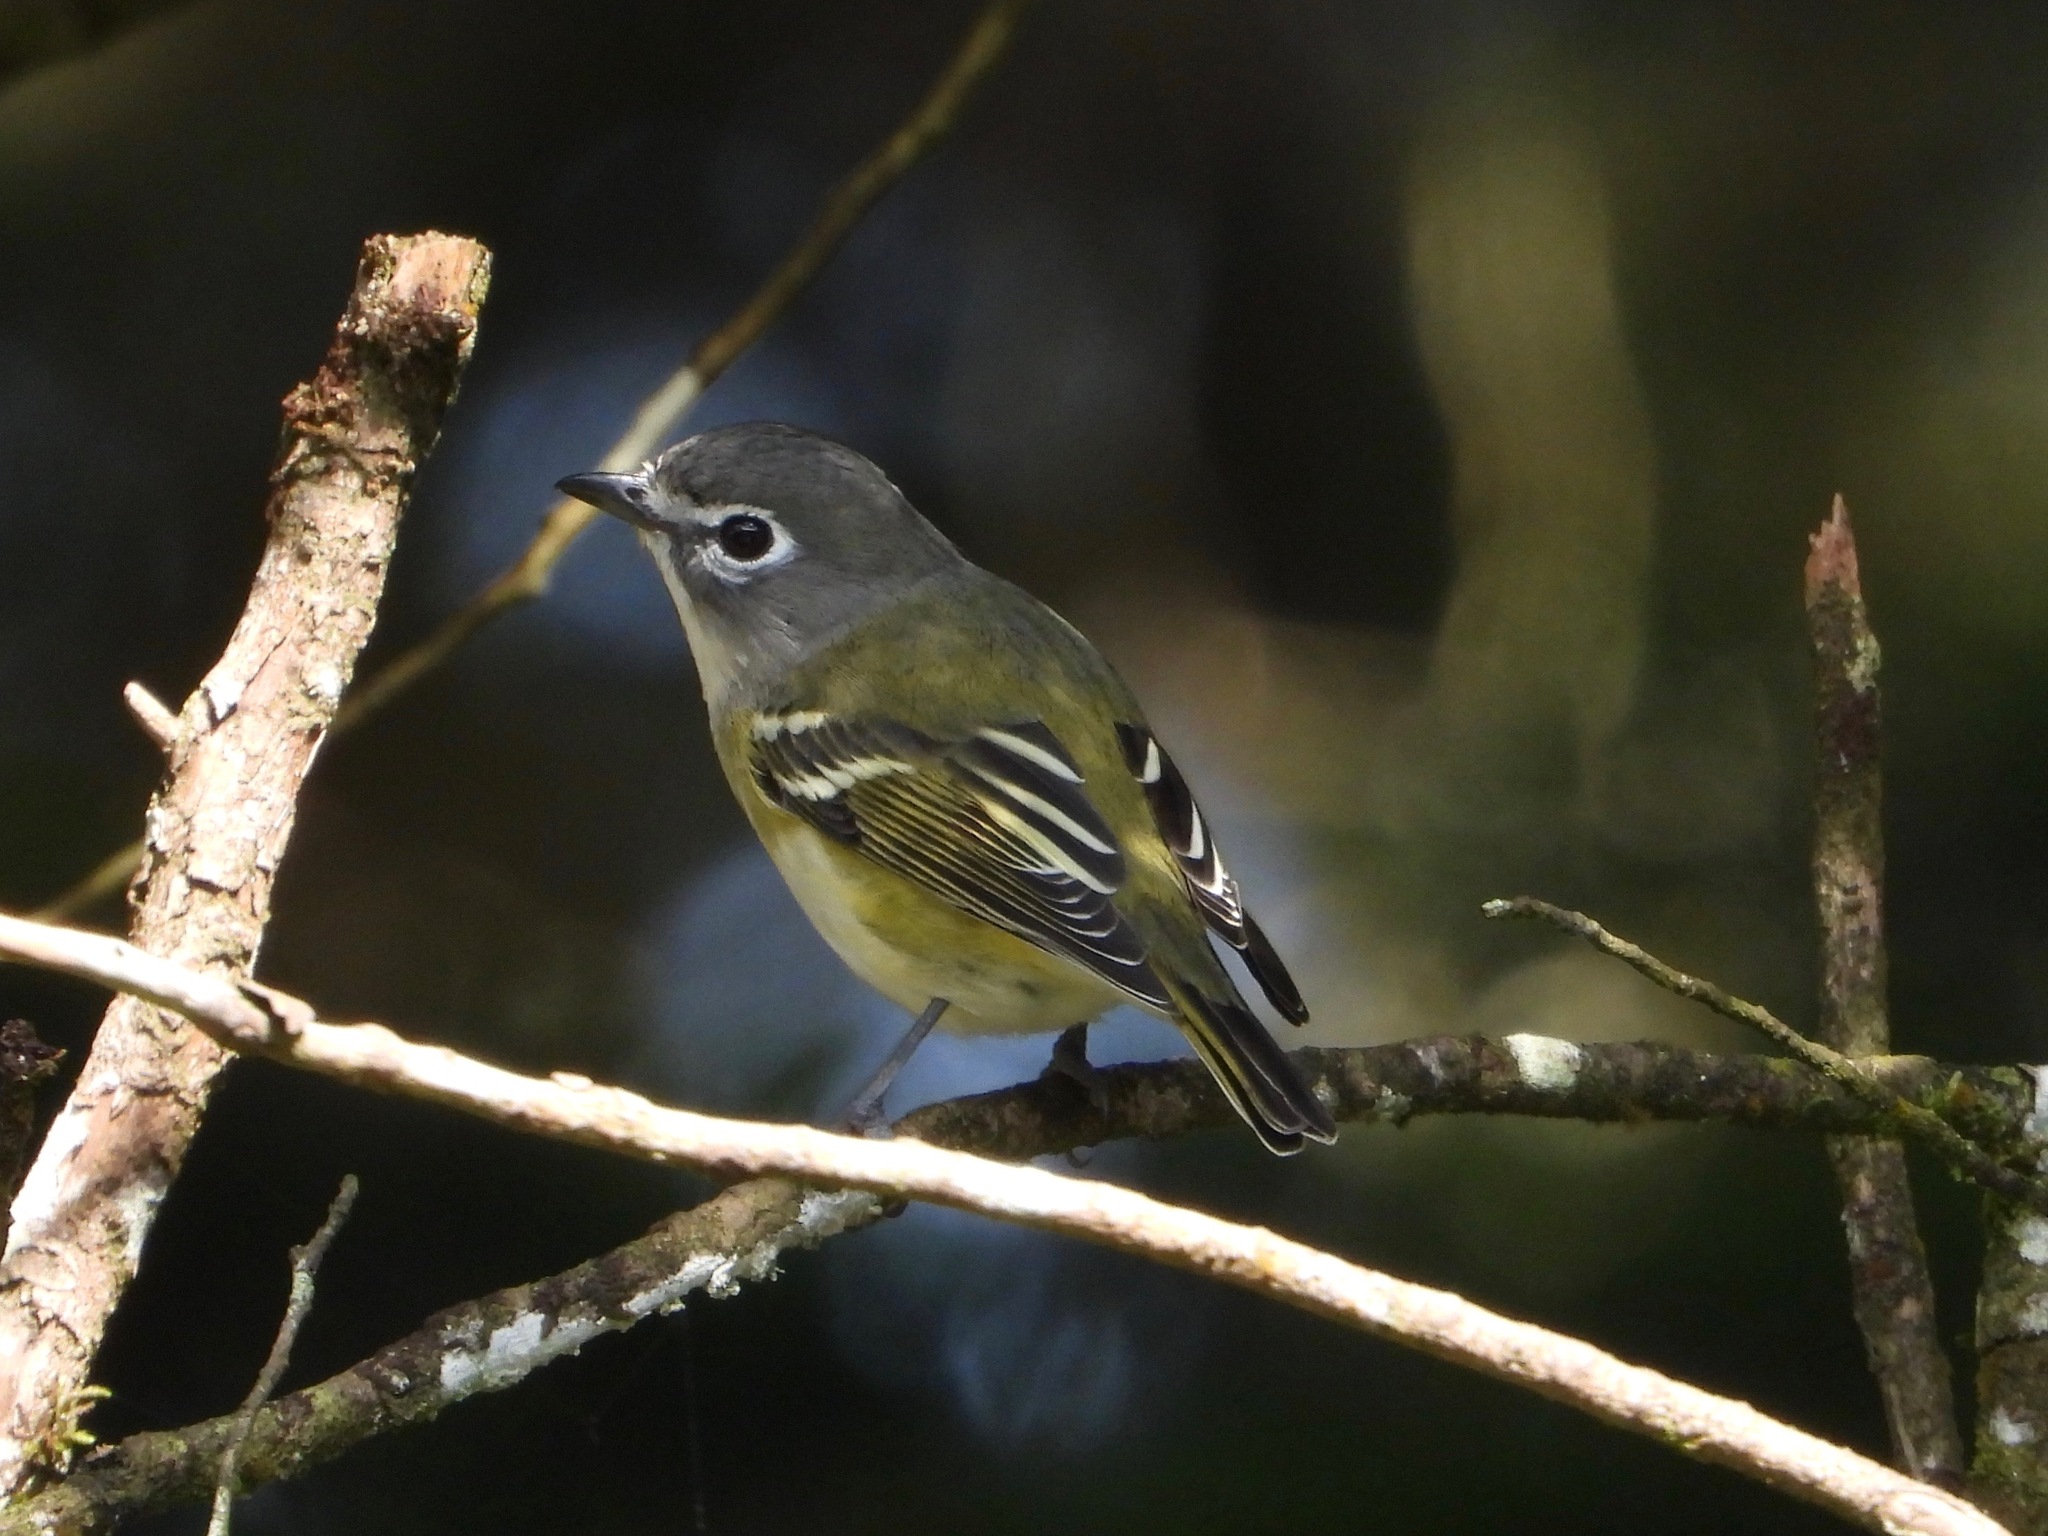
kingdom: Animalia
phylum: Chordata
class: Aves
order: Passeriformes
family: Vireonidae
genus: Vireo
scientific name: Vireo solitarius
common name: Blue-headed vireo
